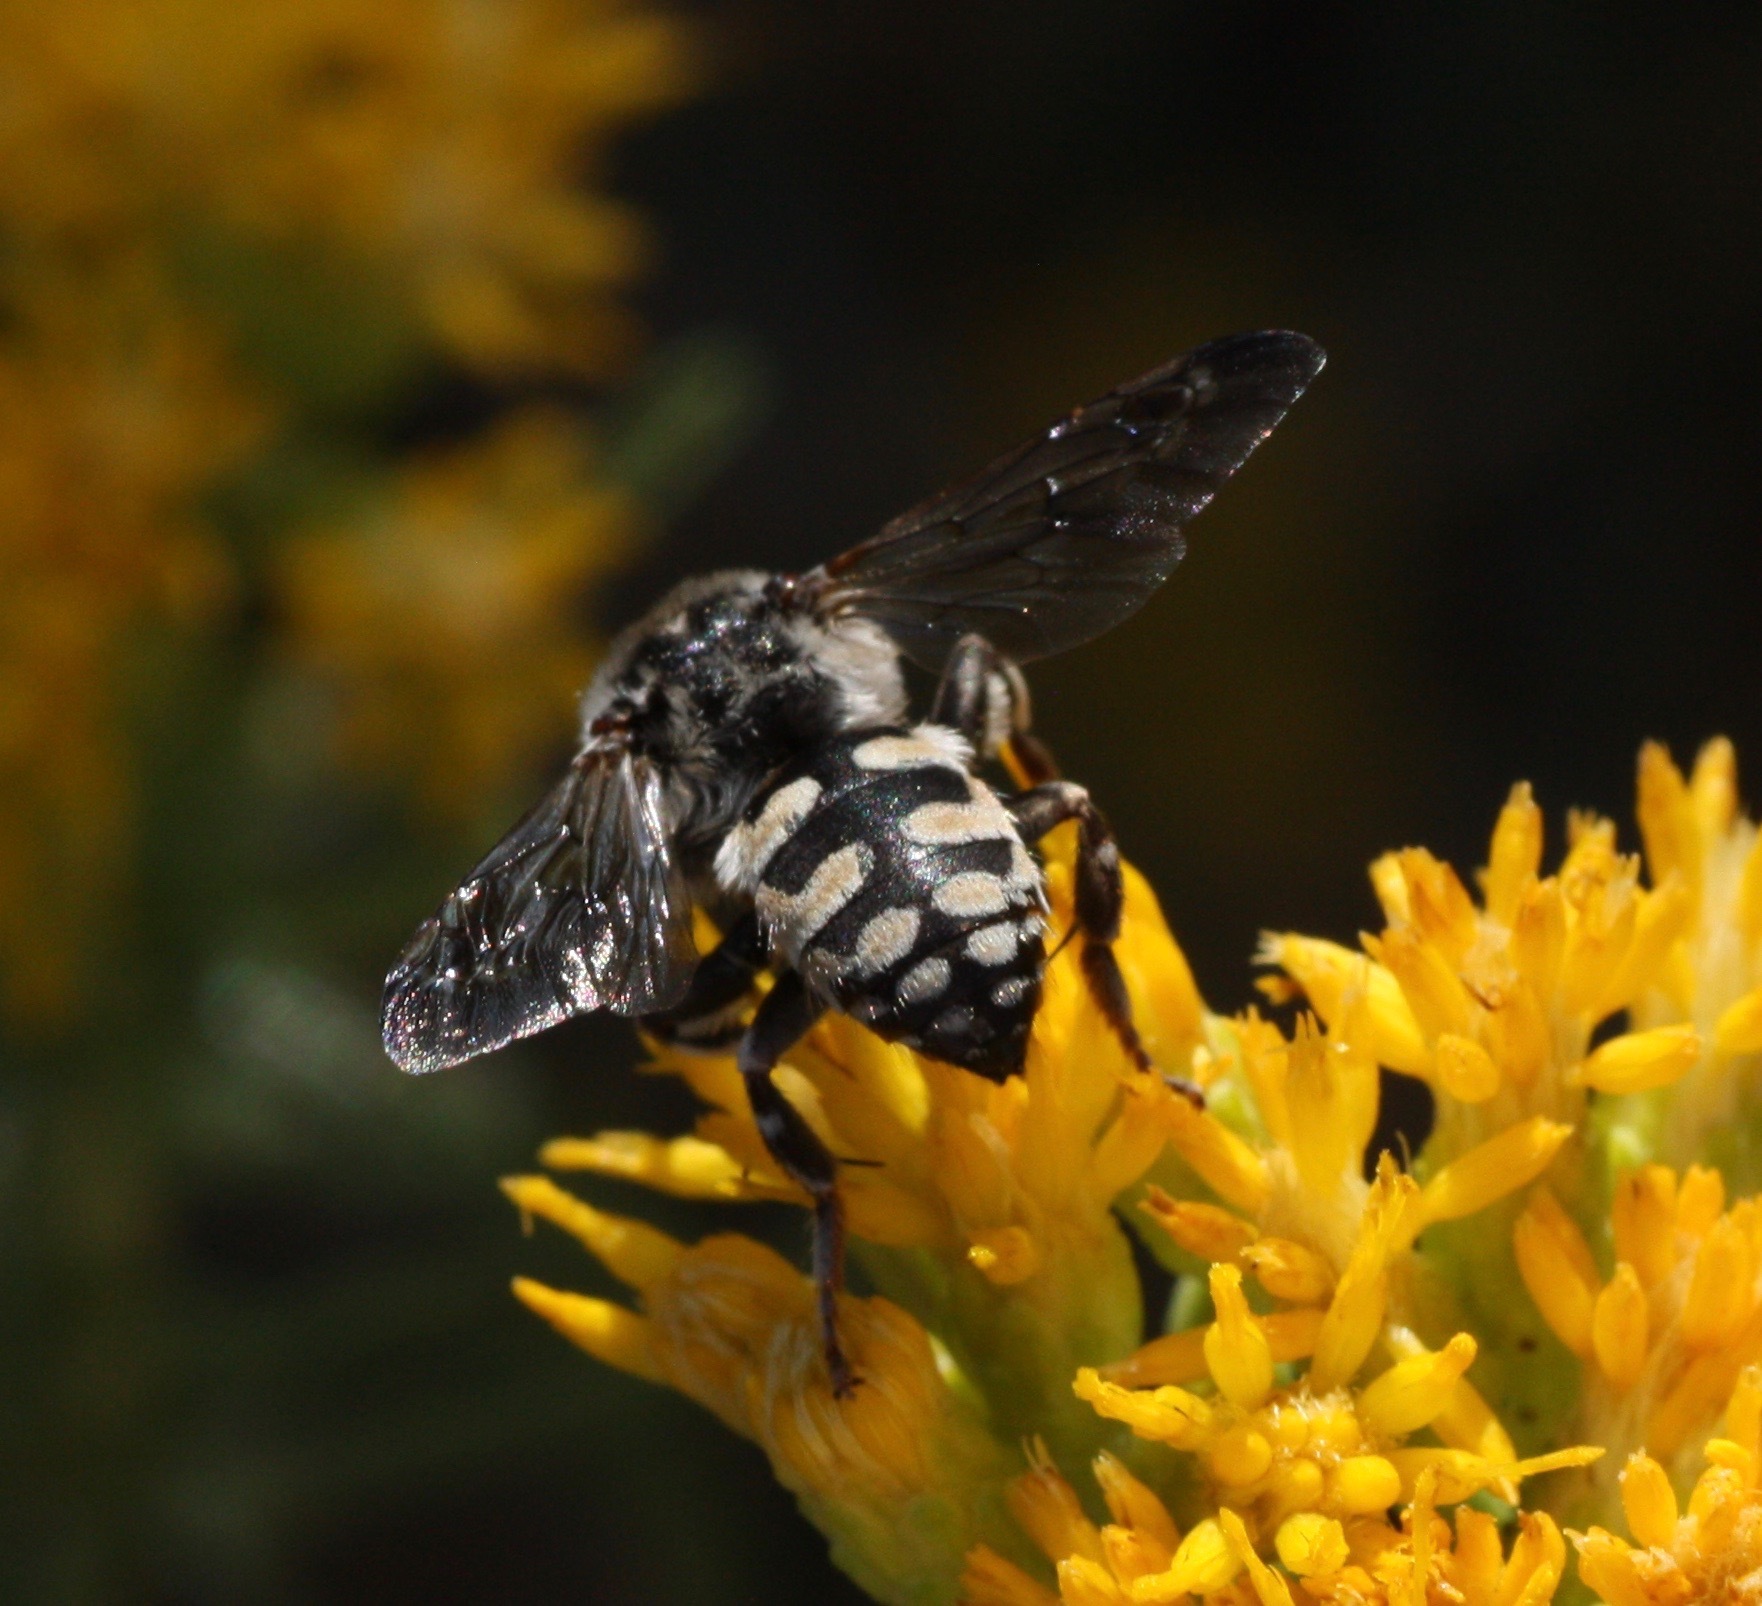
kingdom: Animalia
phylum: Arthropoda
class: Insecta
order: Hymenoptera
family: Apidae
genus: Brachymelecta
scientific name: Brachymelecta californica
